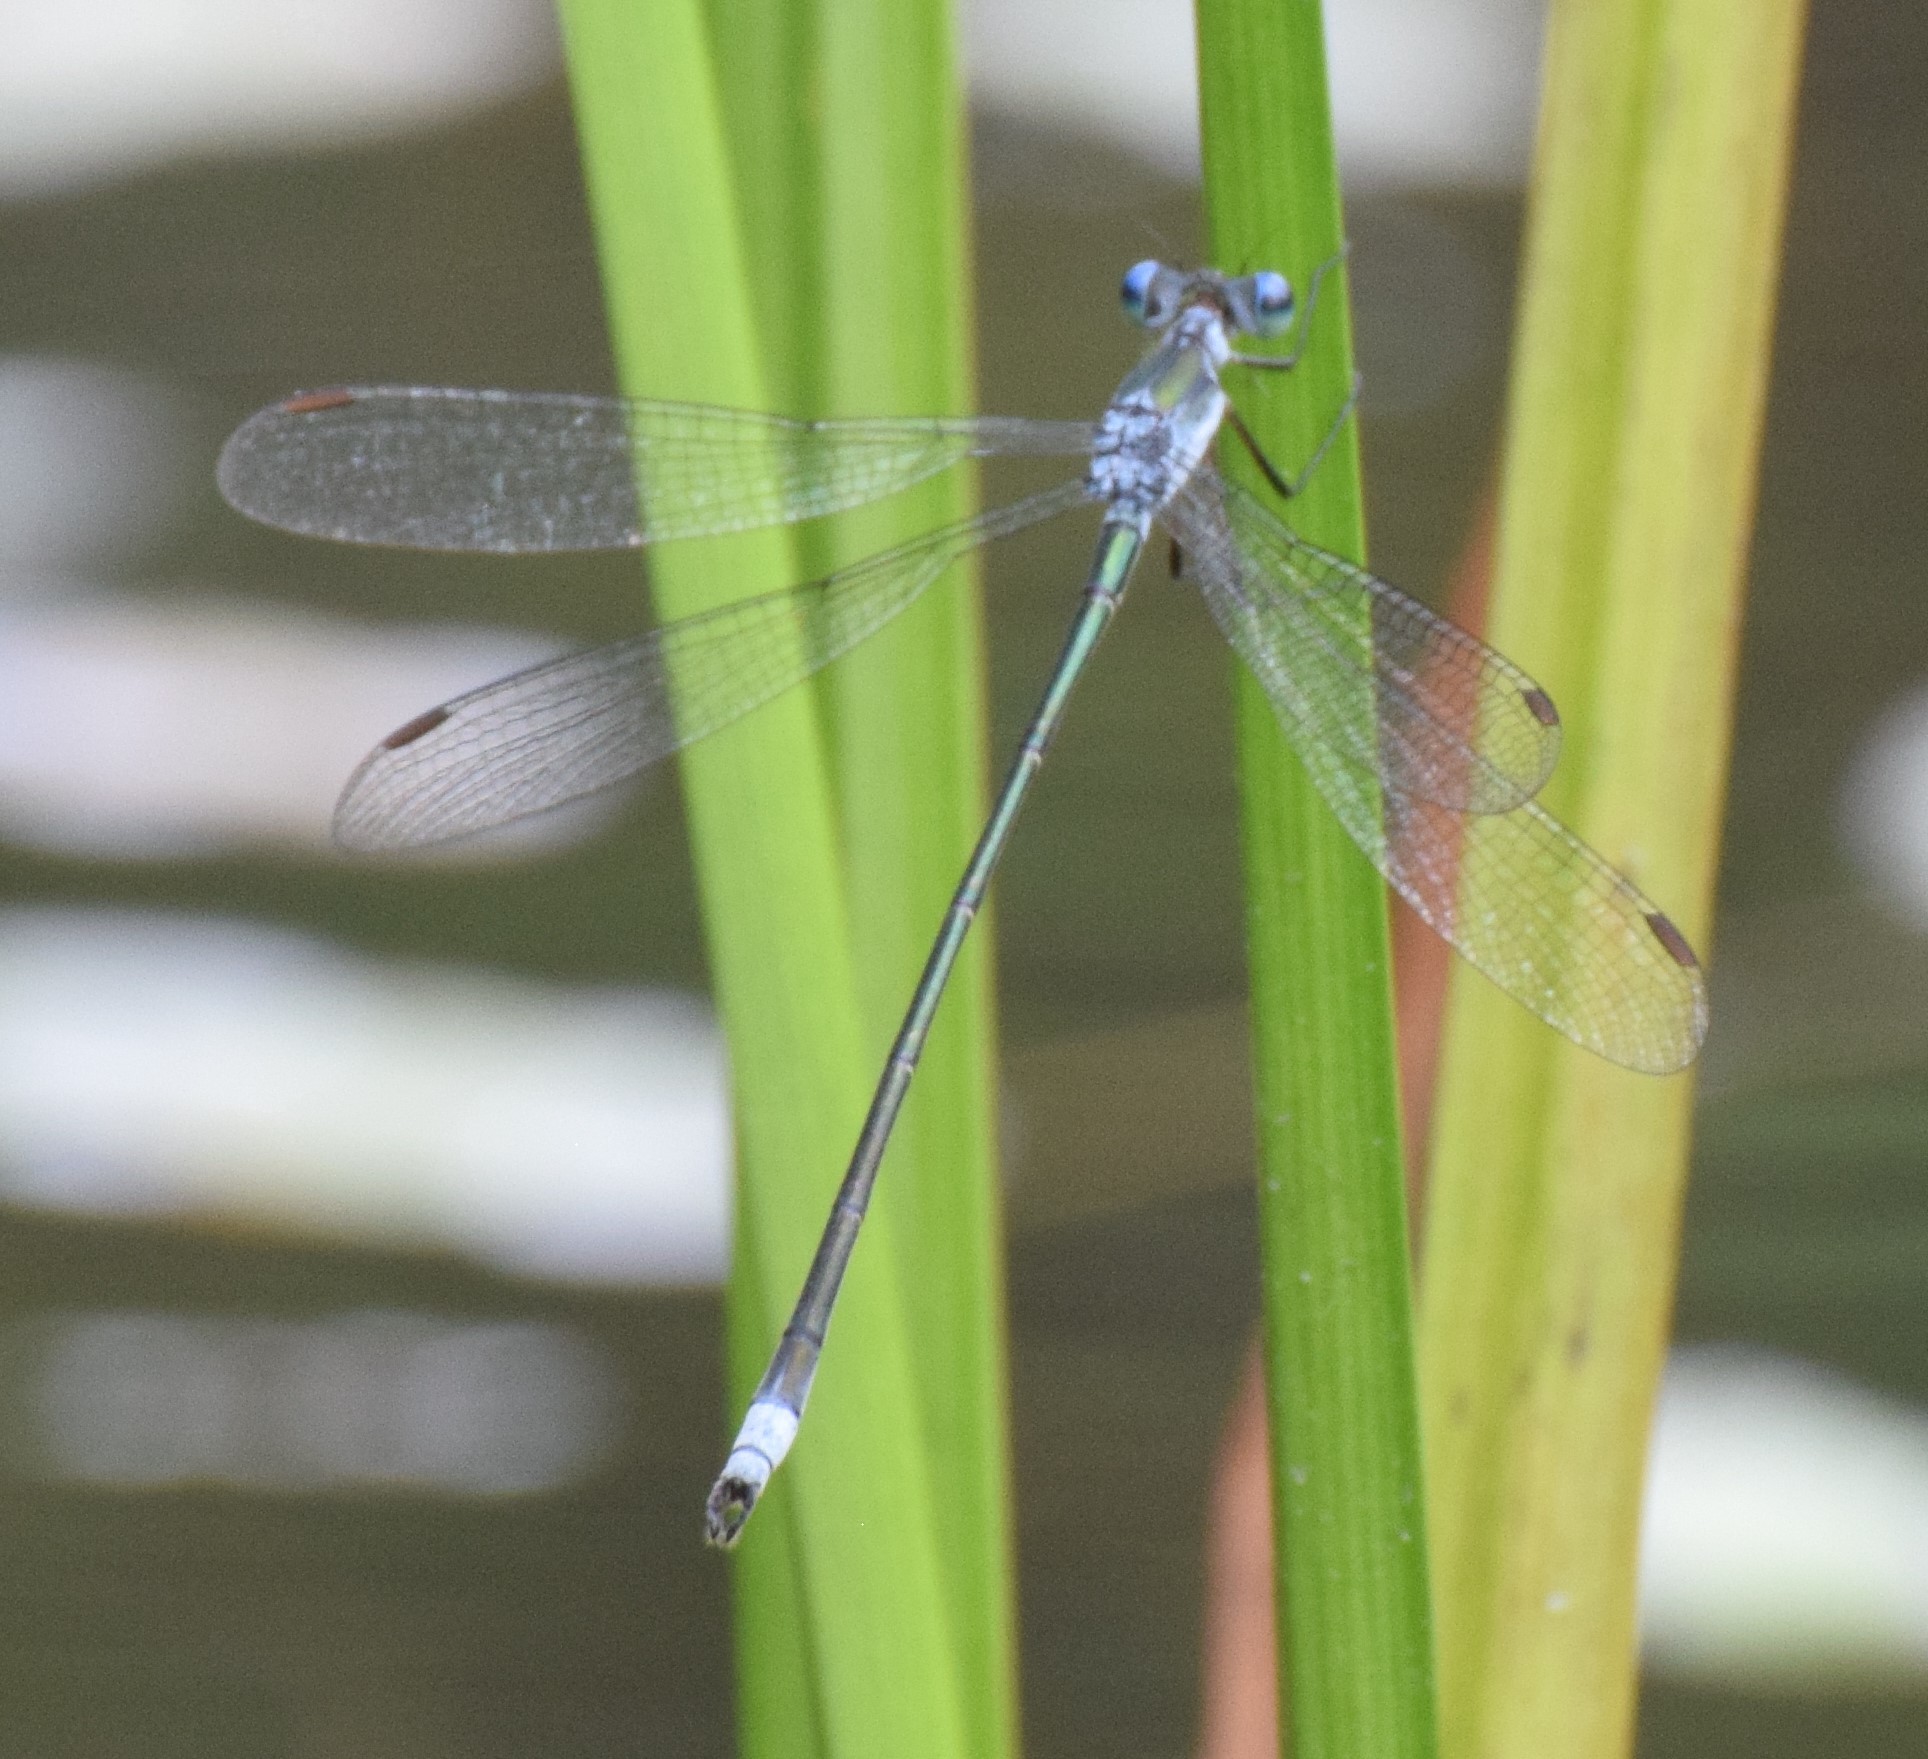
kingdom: Animalia
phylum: Arthropoda
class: Insecta
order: Odonata
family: Lestidae
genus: Lestes
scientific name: Lestes vigilax
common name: Swamp spreadwing
